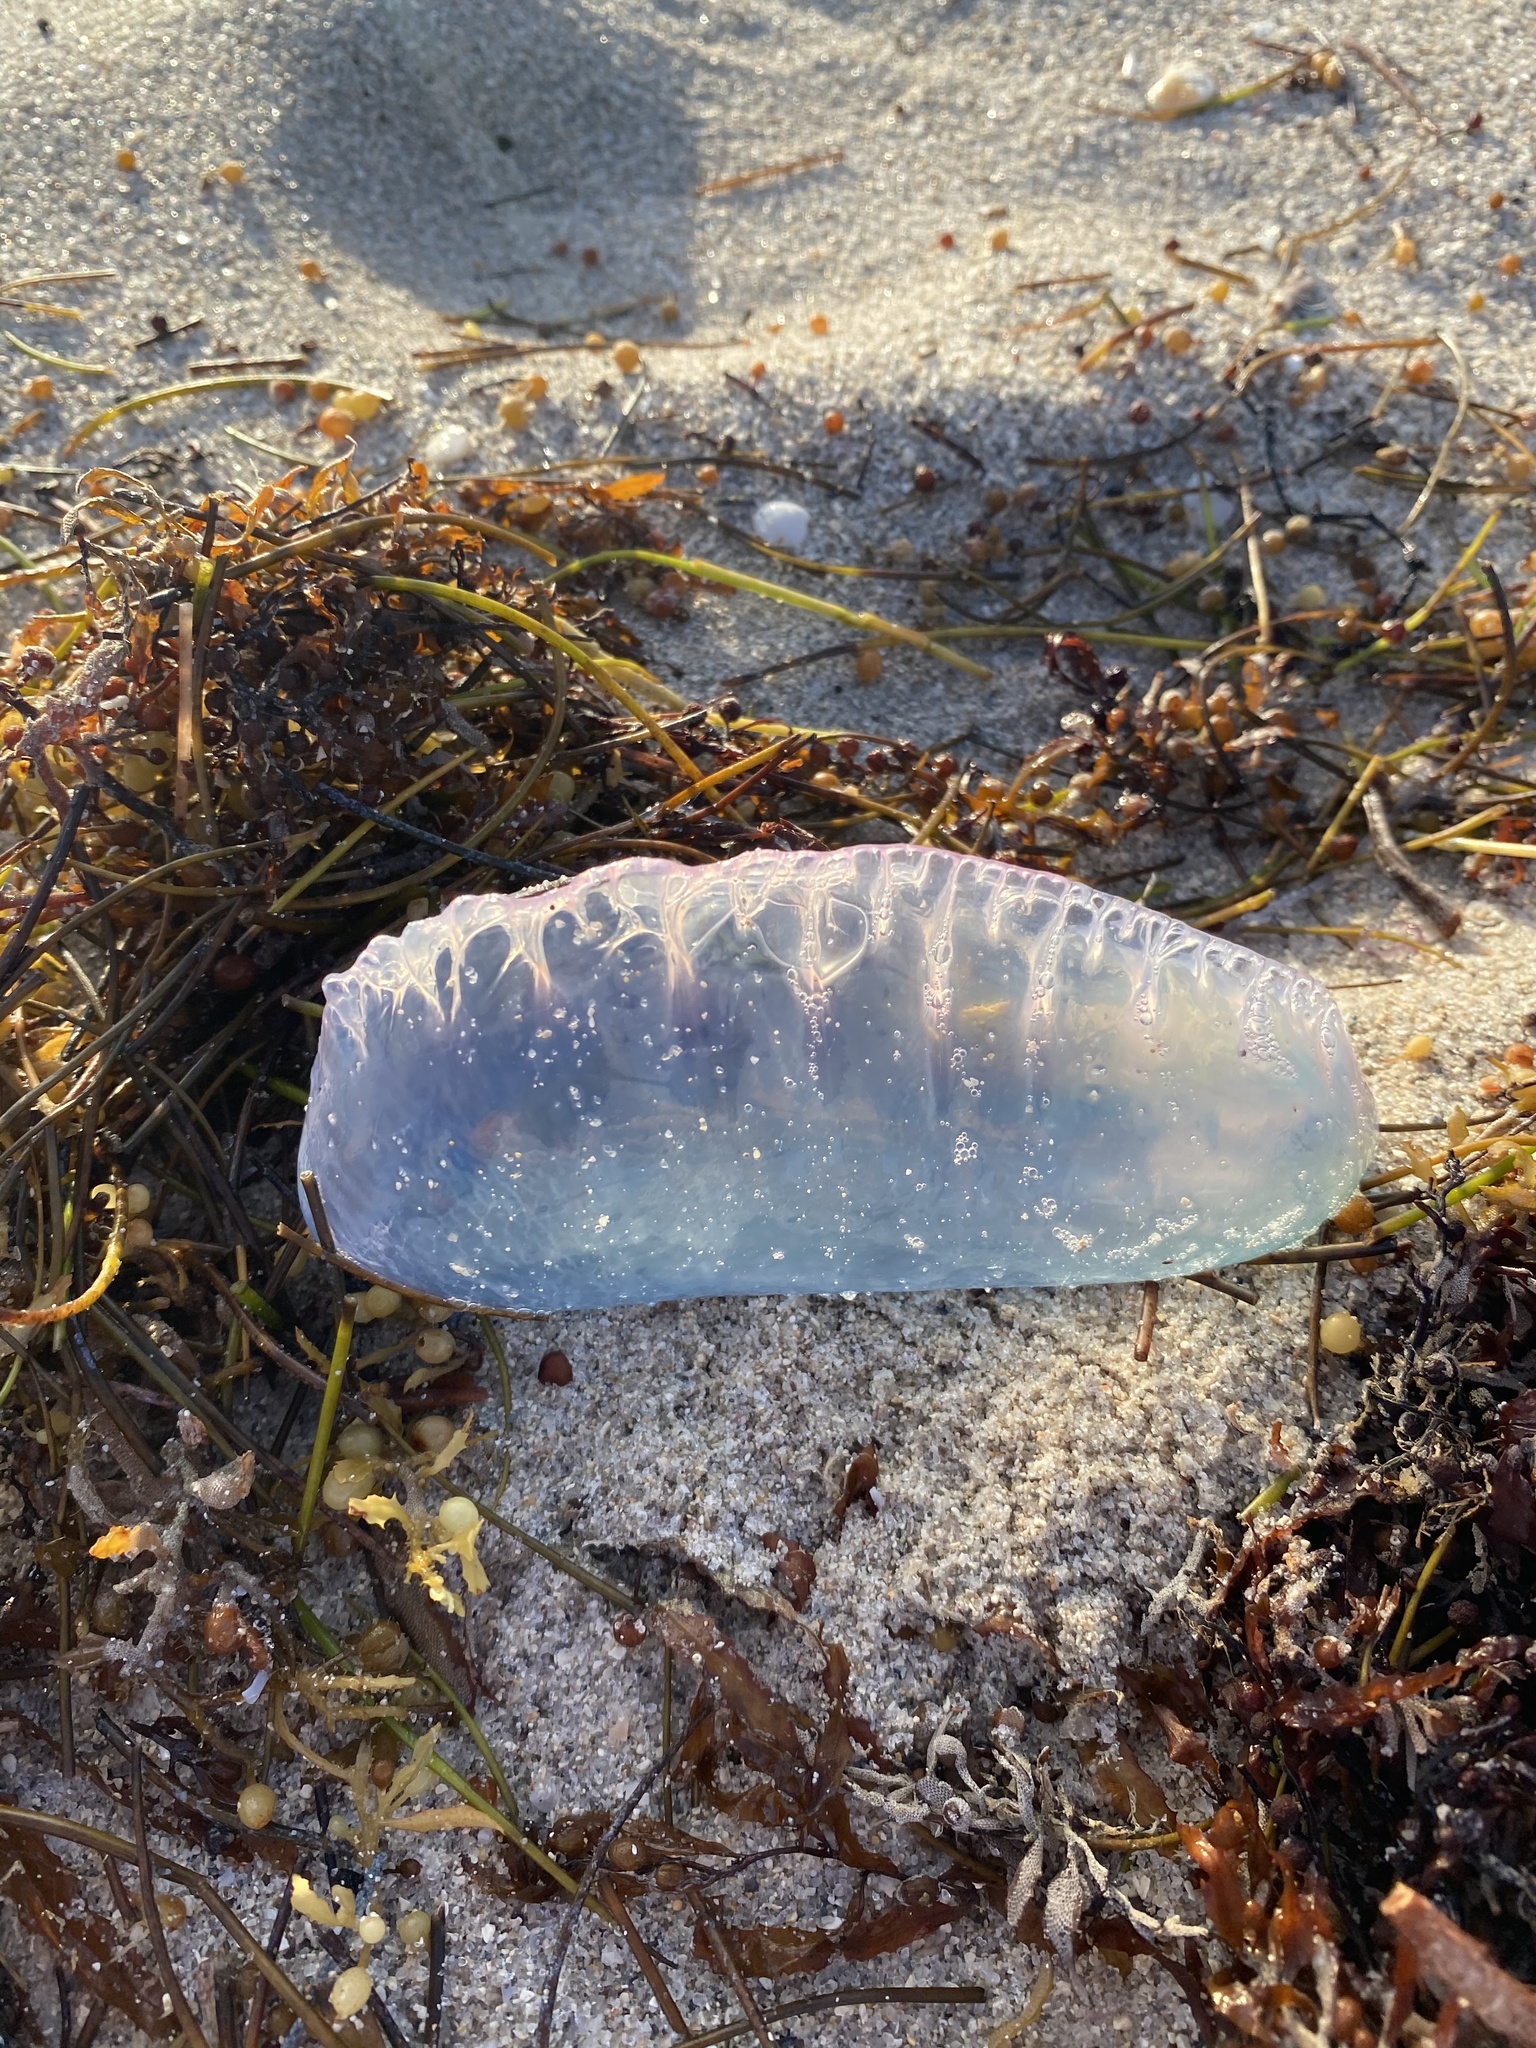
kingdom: Animalia
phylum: Cnidaria
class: Hydrozoa
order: Siphonophorae
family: Physaliidae
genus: Physalia
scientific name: Physalia physalis
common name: Portuguese man-of-war
